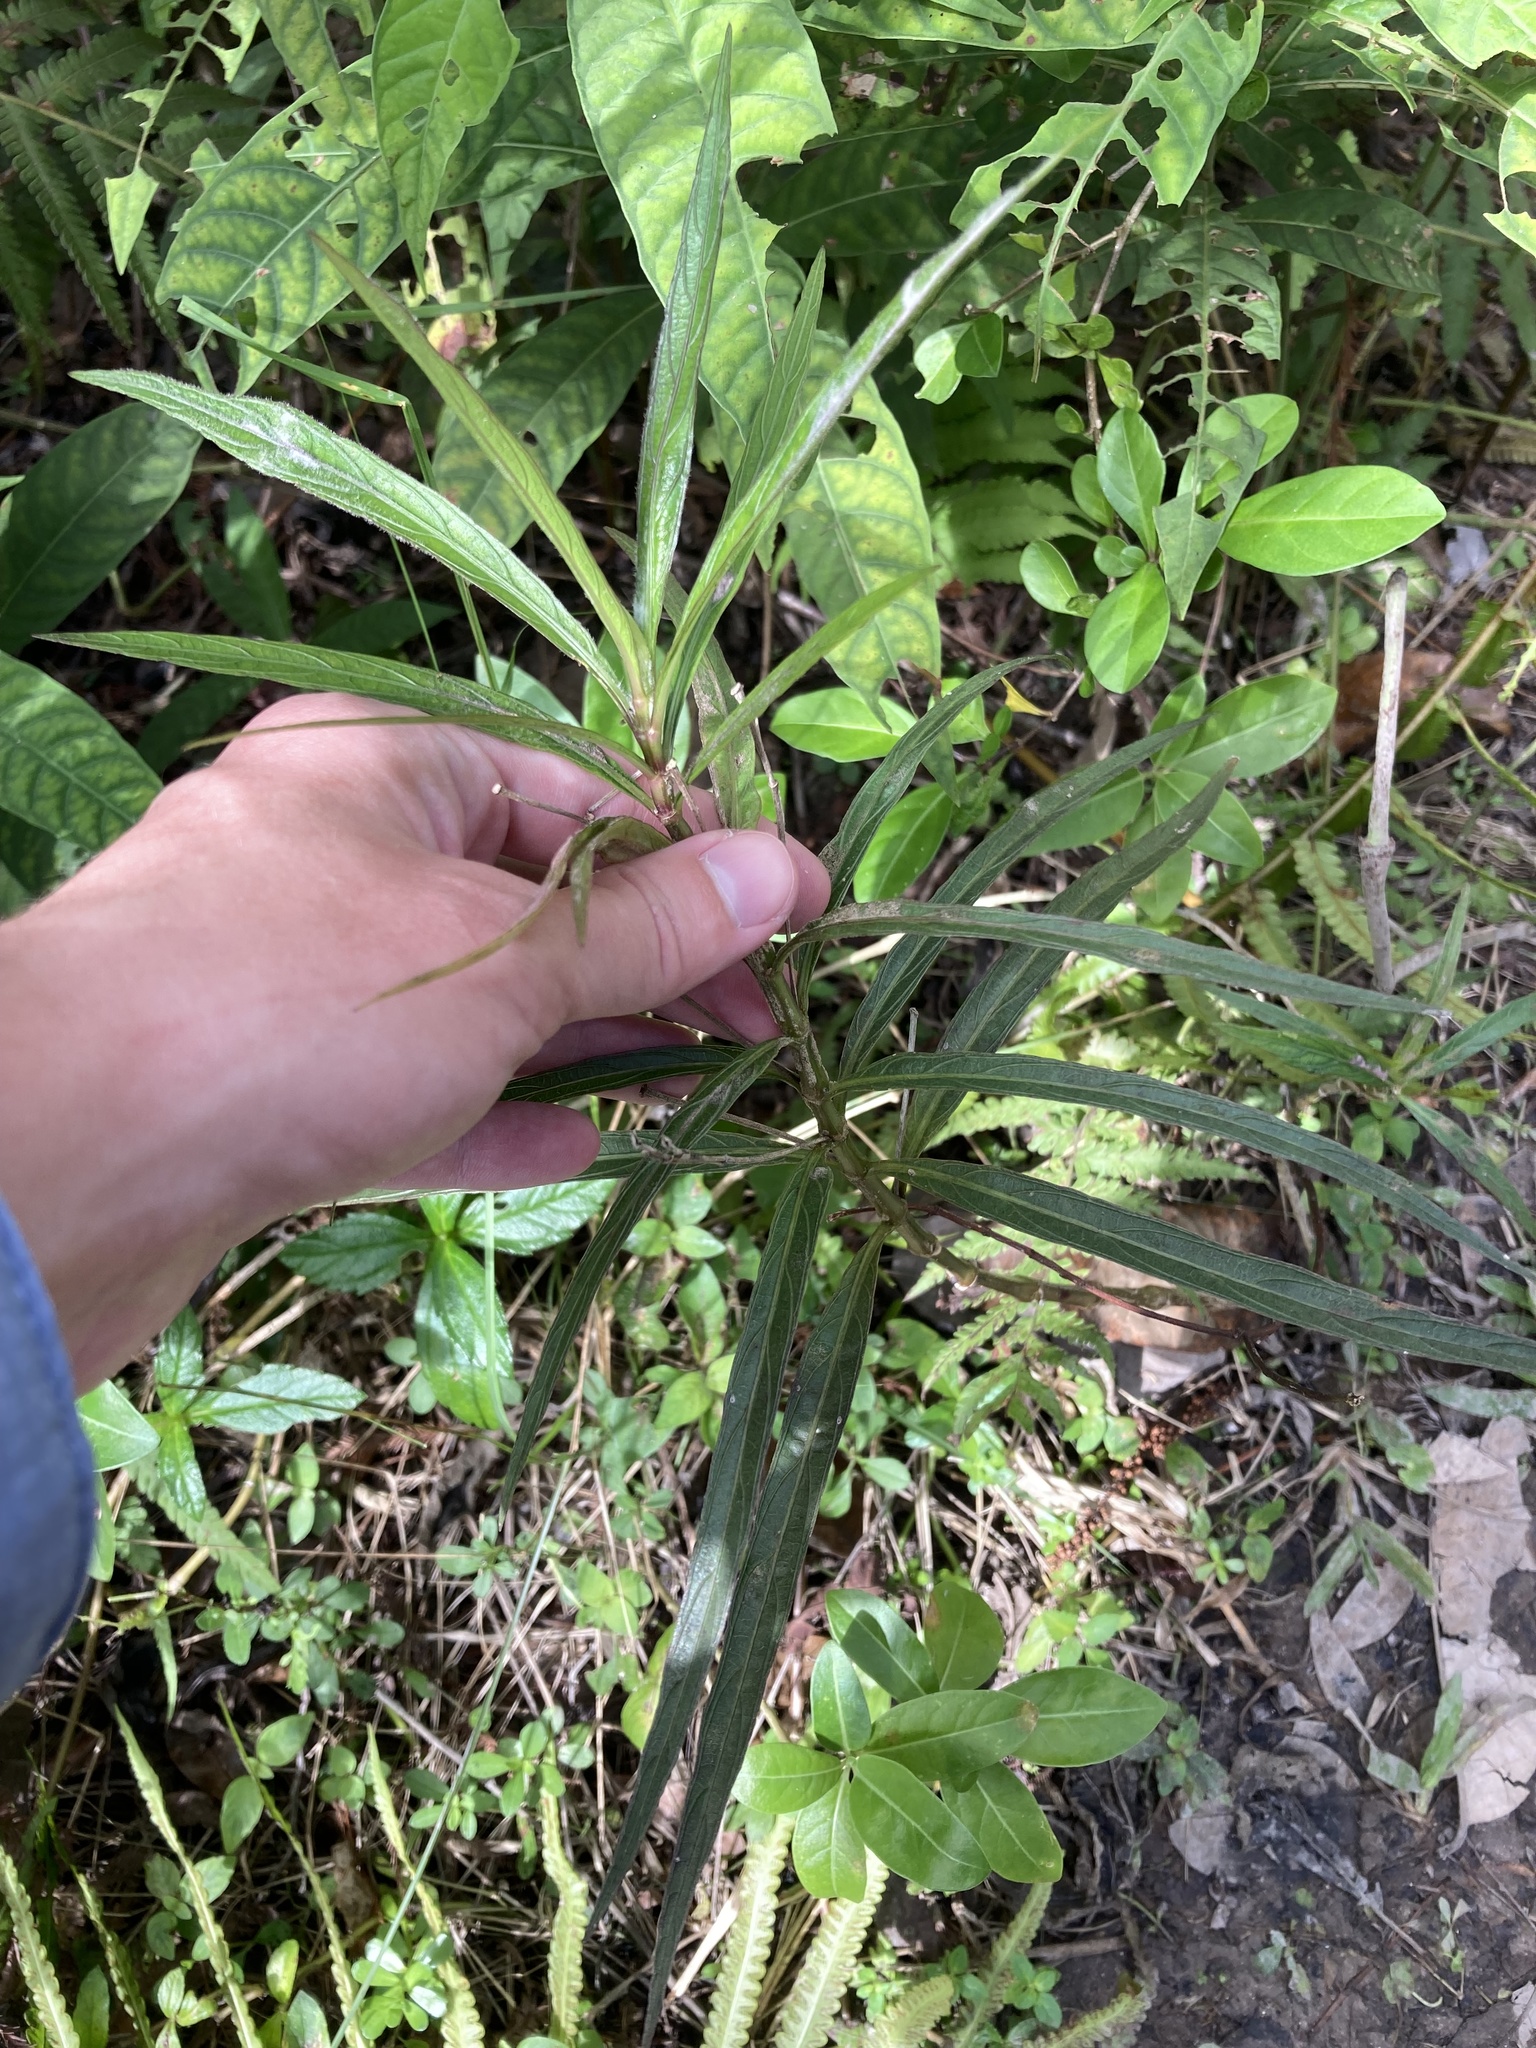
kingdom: Plantae
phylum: Tracheophyta
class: Magnoliopsida
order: Lamiales
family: Acanthaceae
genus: Ruellia
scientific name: Ruellia simplex
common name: Softseed wild petunia
